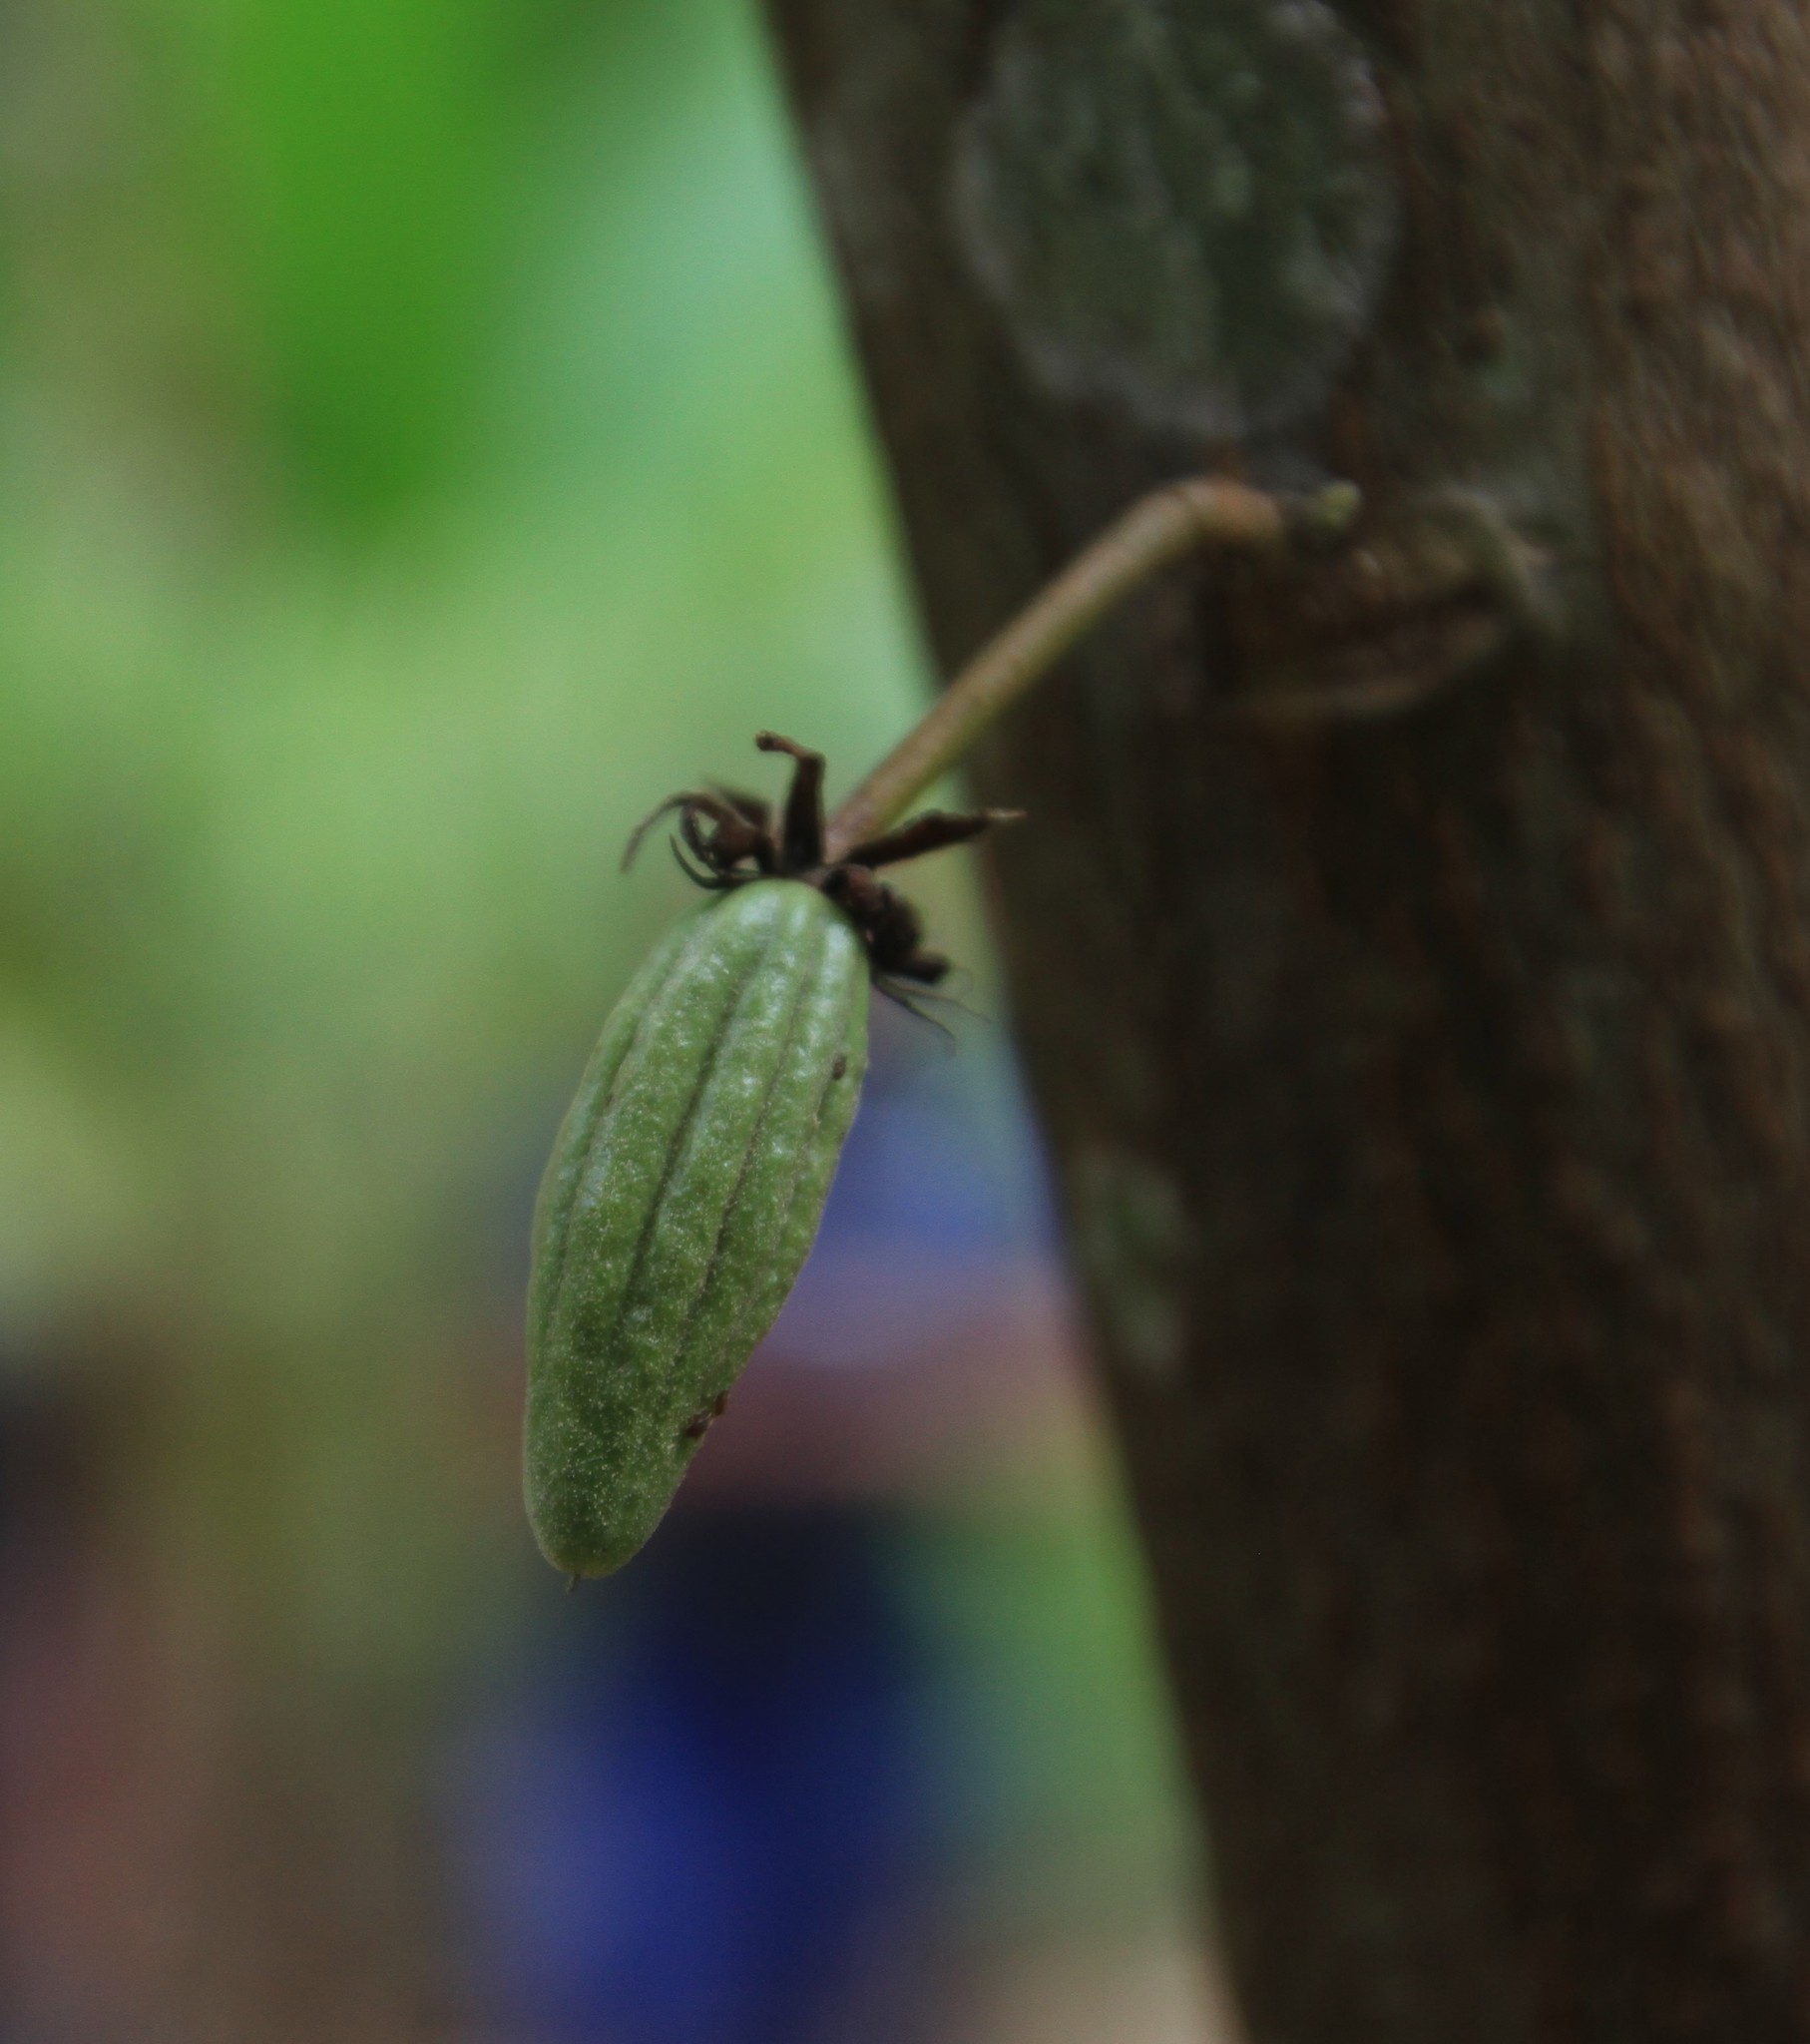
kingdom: Plantae
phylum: Tracheophyta
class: Magnoliopsida
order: Malvales
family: Malvaceae
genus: Theobroma
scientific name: Theobroma cacao
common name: Cocoa
